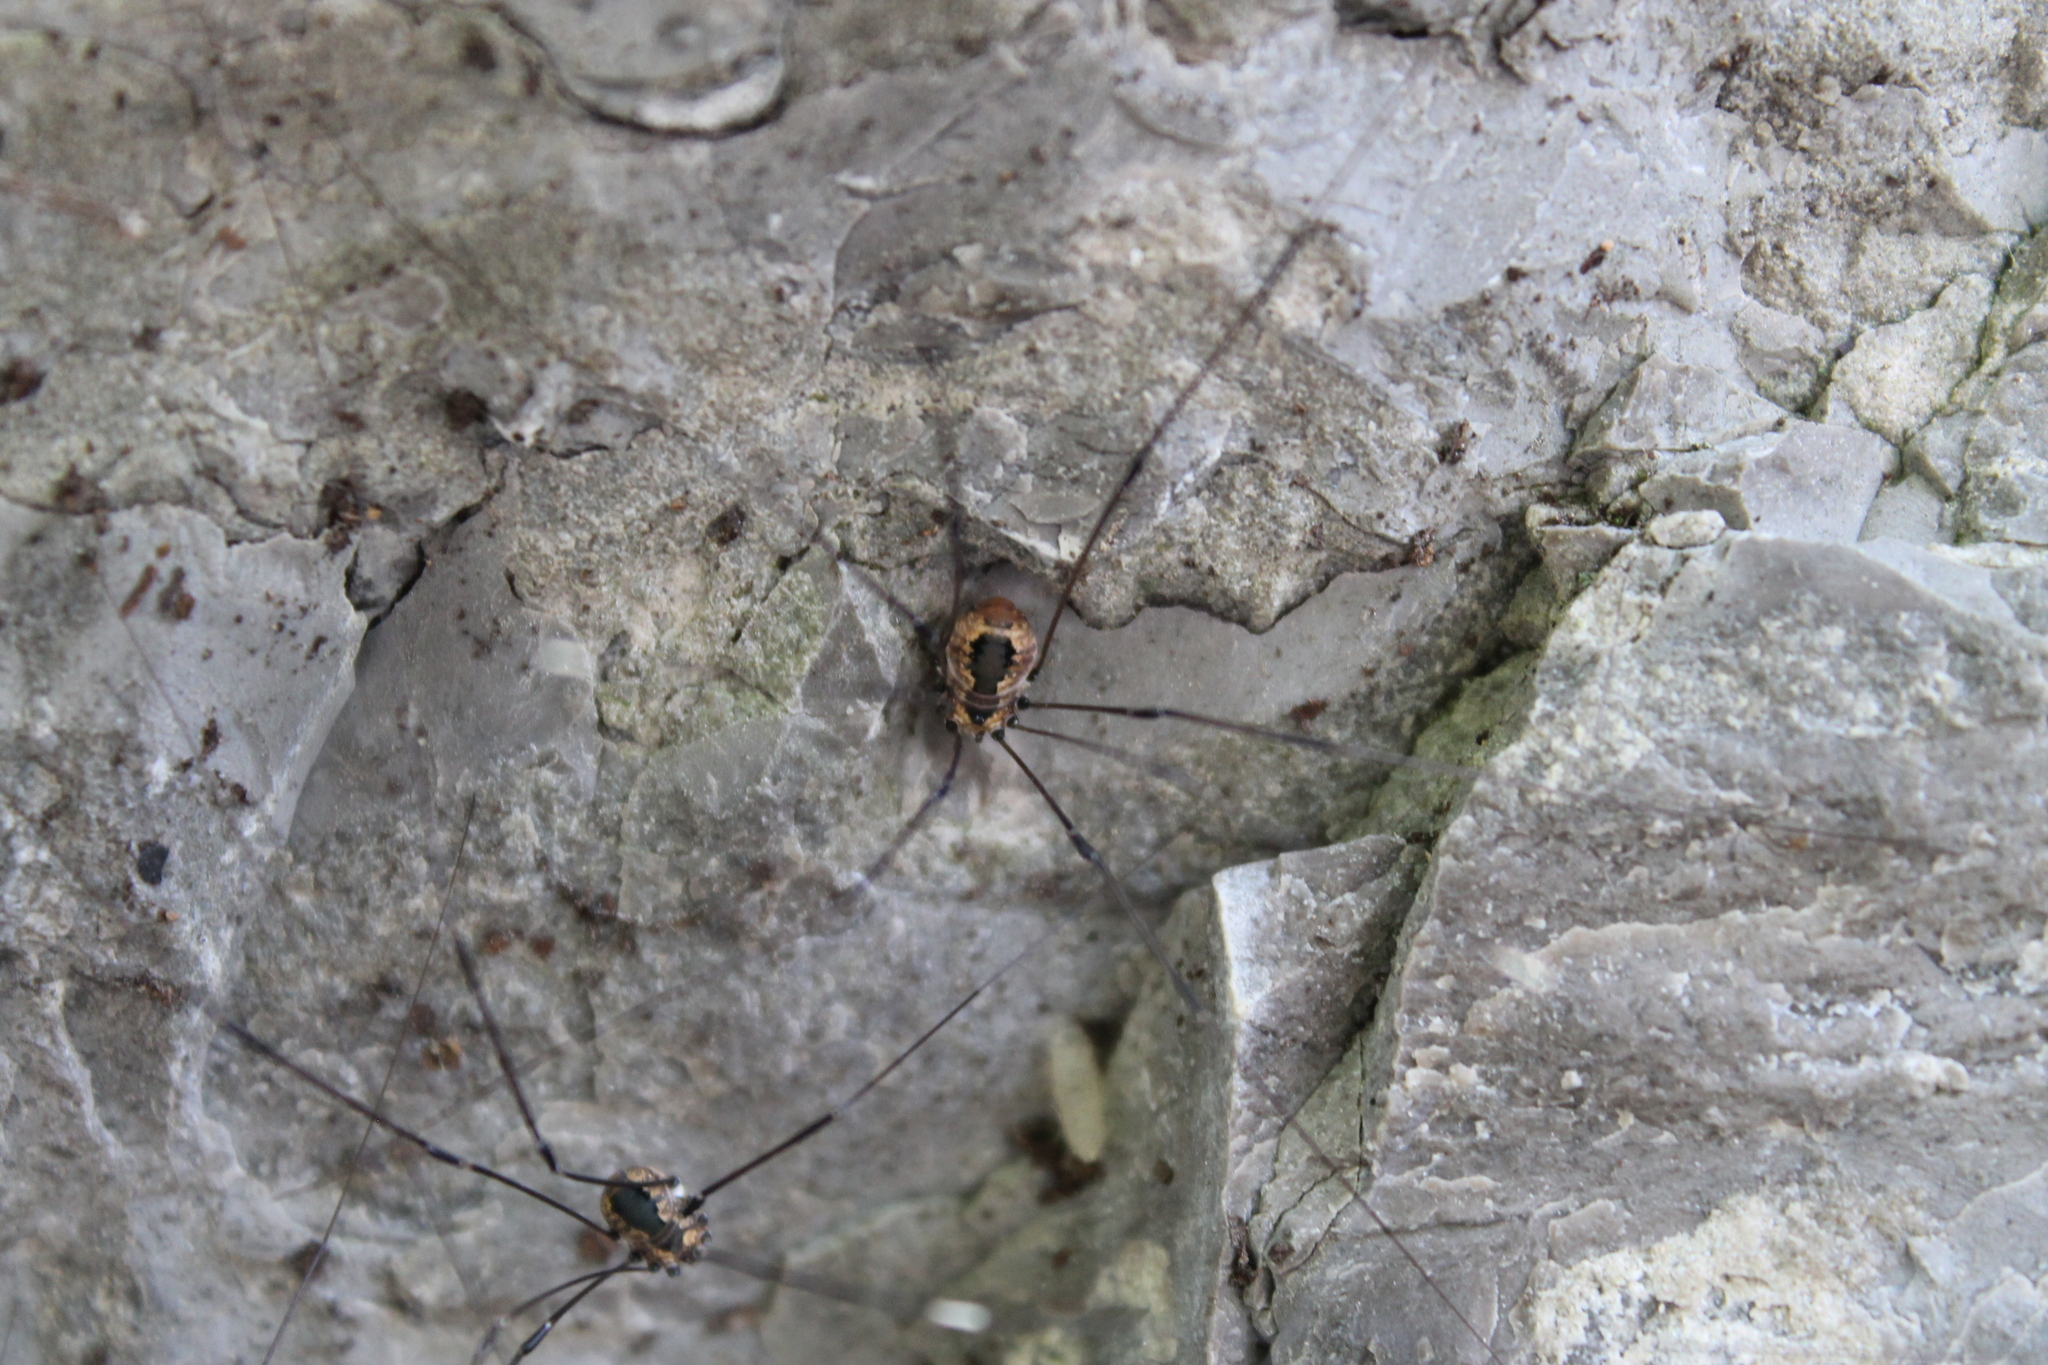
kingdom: Animalia
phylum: Arthropoda
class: Arachnida
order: Opiliones
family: Sclerosomatidae
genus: Leiobunum
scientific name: Leiobunum aldrichi
